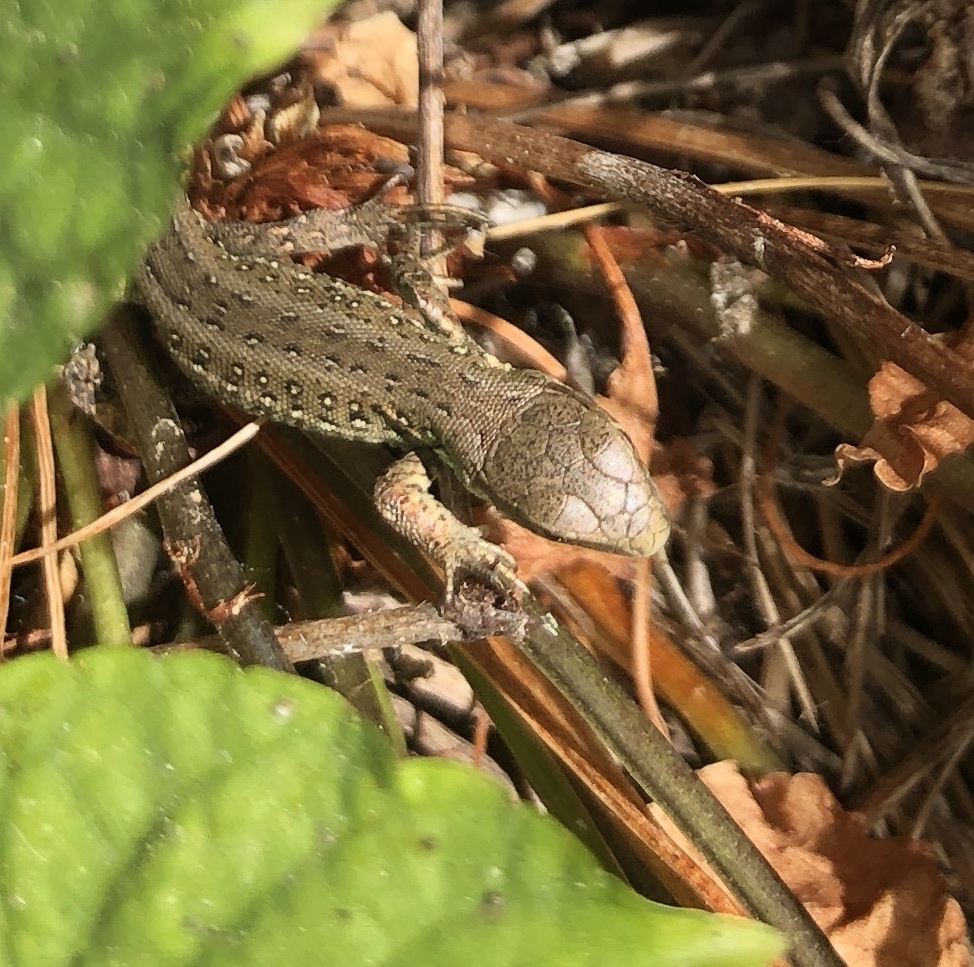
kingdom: Animalia
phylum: Chordata
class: Squamata
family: Lacertidae
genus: Lacerta
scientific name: Lacerta agilis
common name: Sand lizard
